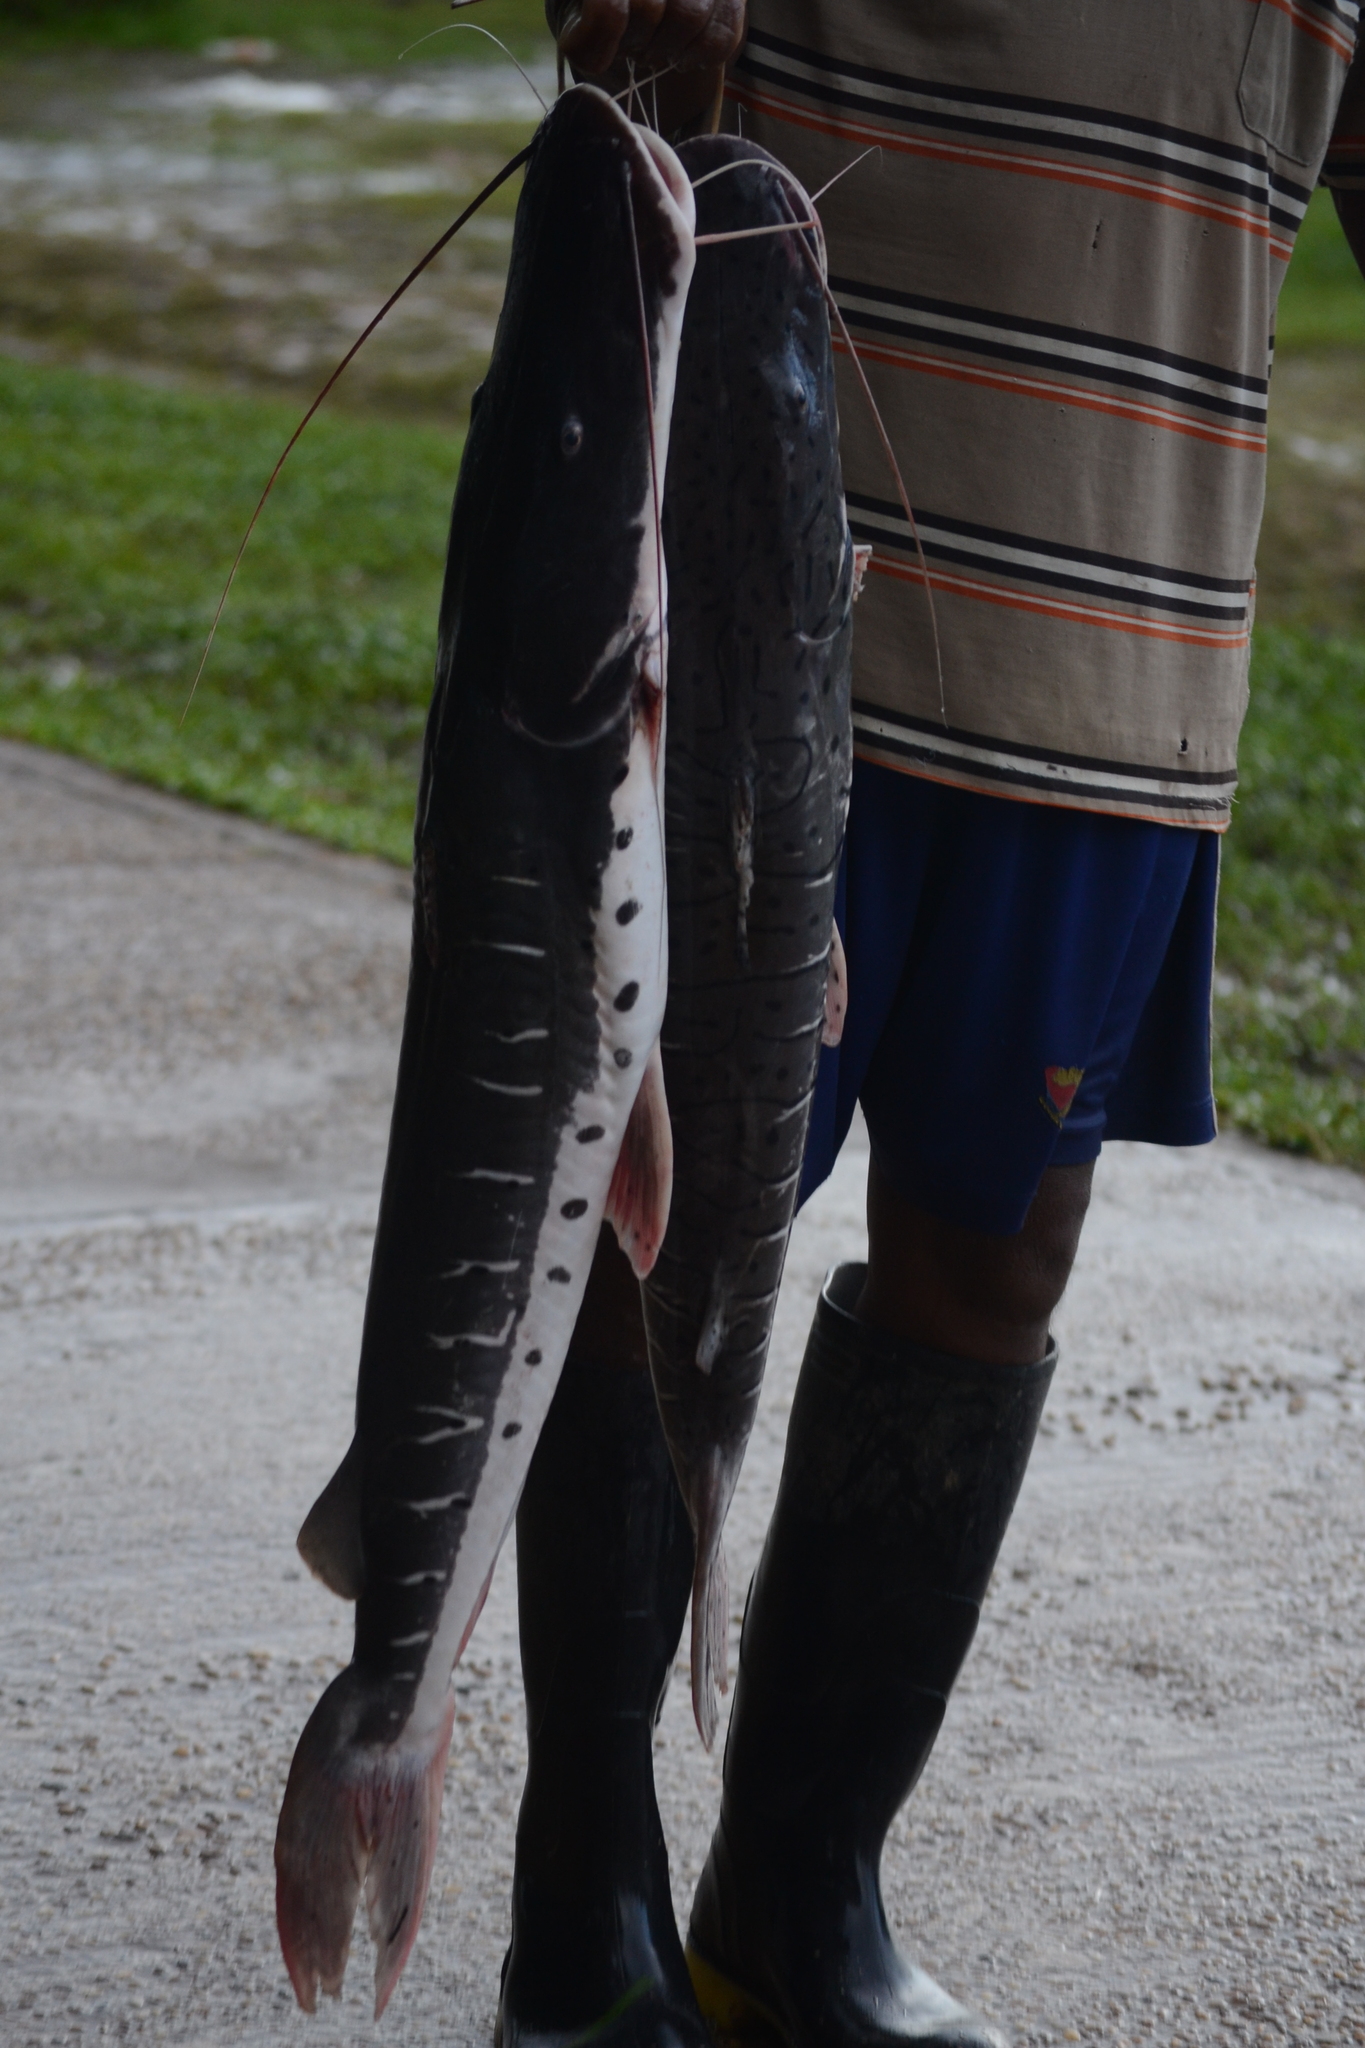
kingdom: Animalia
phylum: Chordata
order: Siluriformes
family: Pimelodidae
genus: Pseudoplatystoma
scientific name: Pseudoplatystoma punctifer
